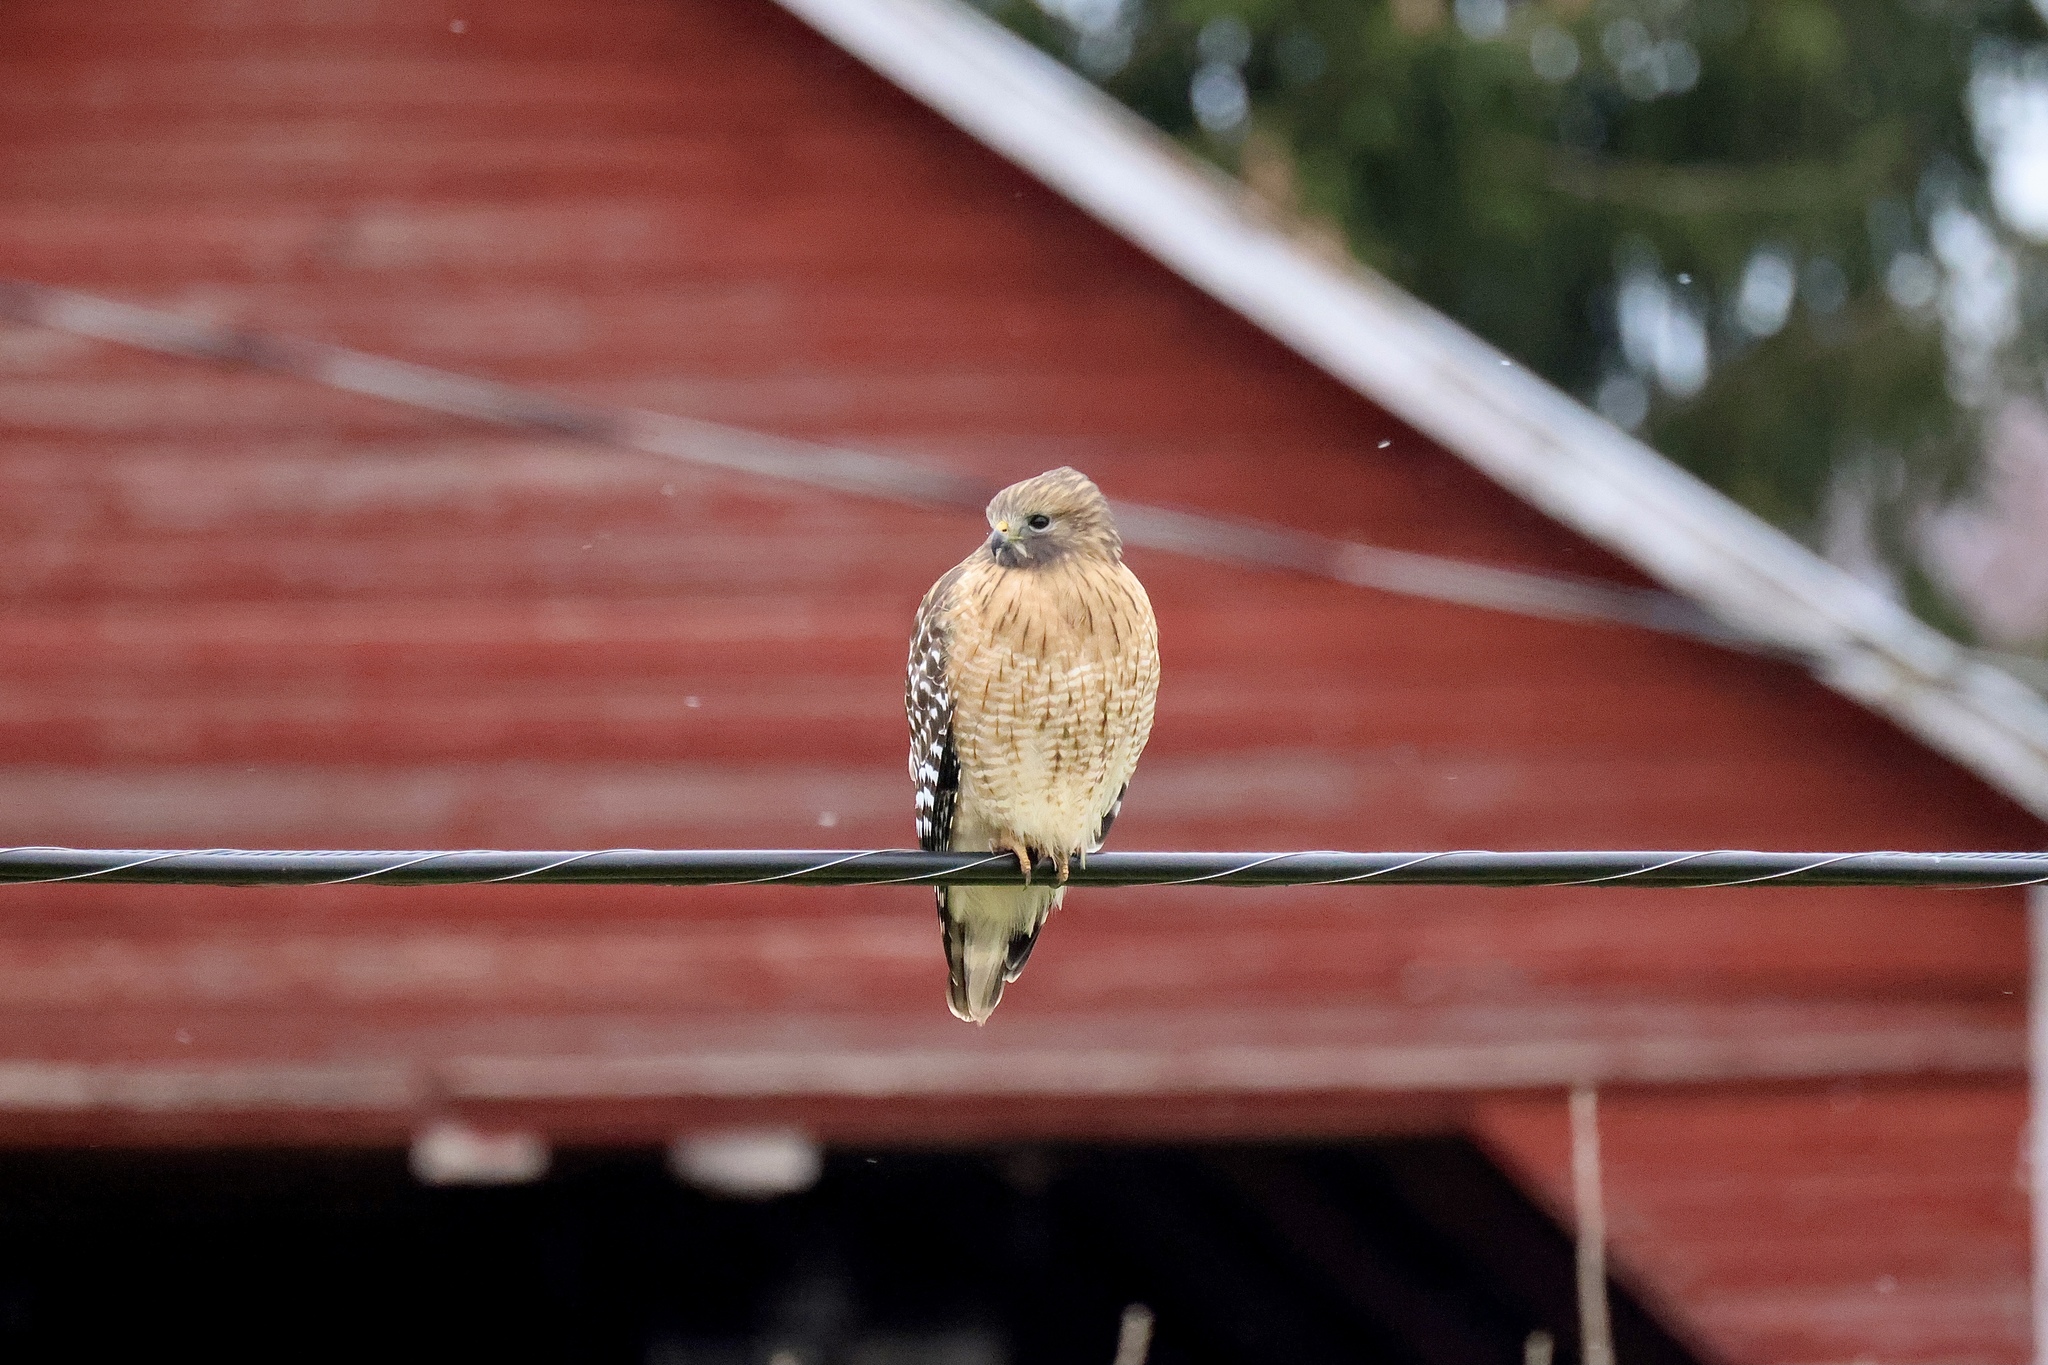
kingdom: Animalia
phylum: Chordata
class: Aves
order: Accipitriformes
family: Accipitridae
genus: Buteo
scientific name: Buteo lineatus
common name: Red-shouldered hawk
